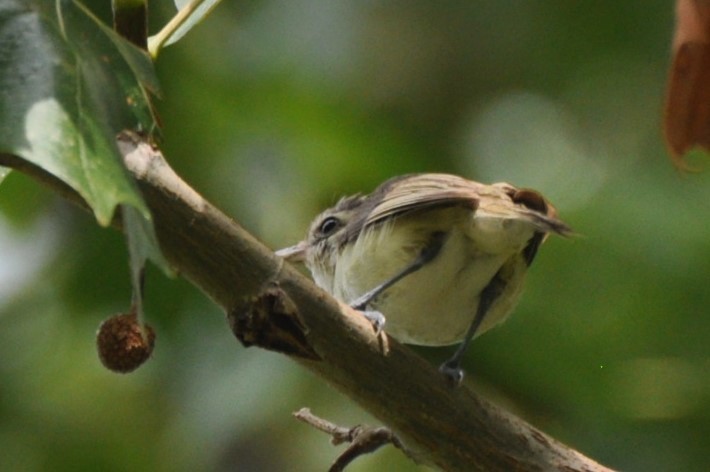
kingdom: Animalia
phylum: Chordata
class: Aves
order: Passeriformes
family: Vireonidae
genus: Vireo
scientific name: Vireo gilvus
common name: Warbling vireo
